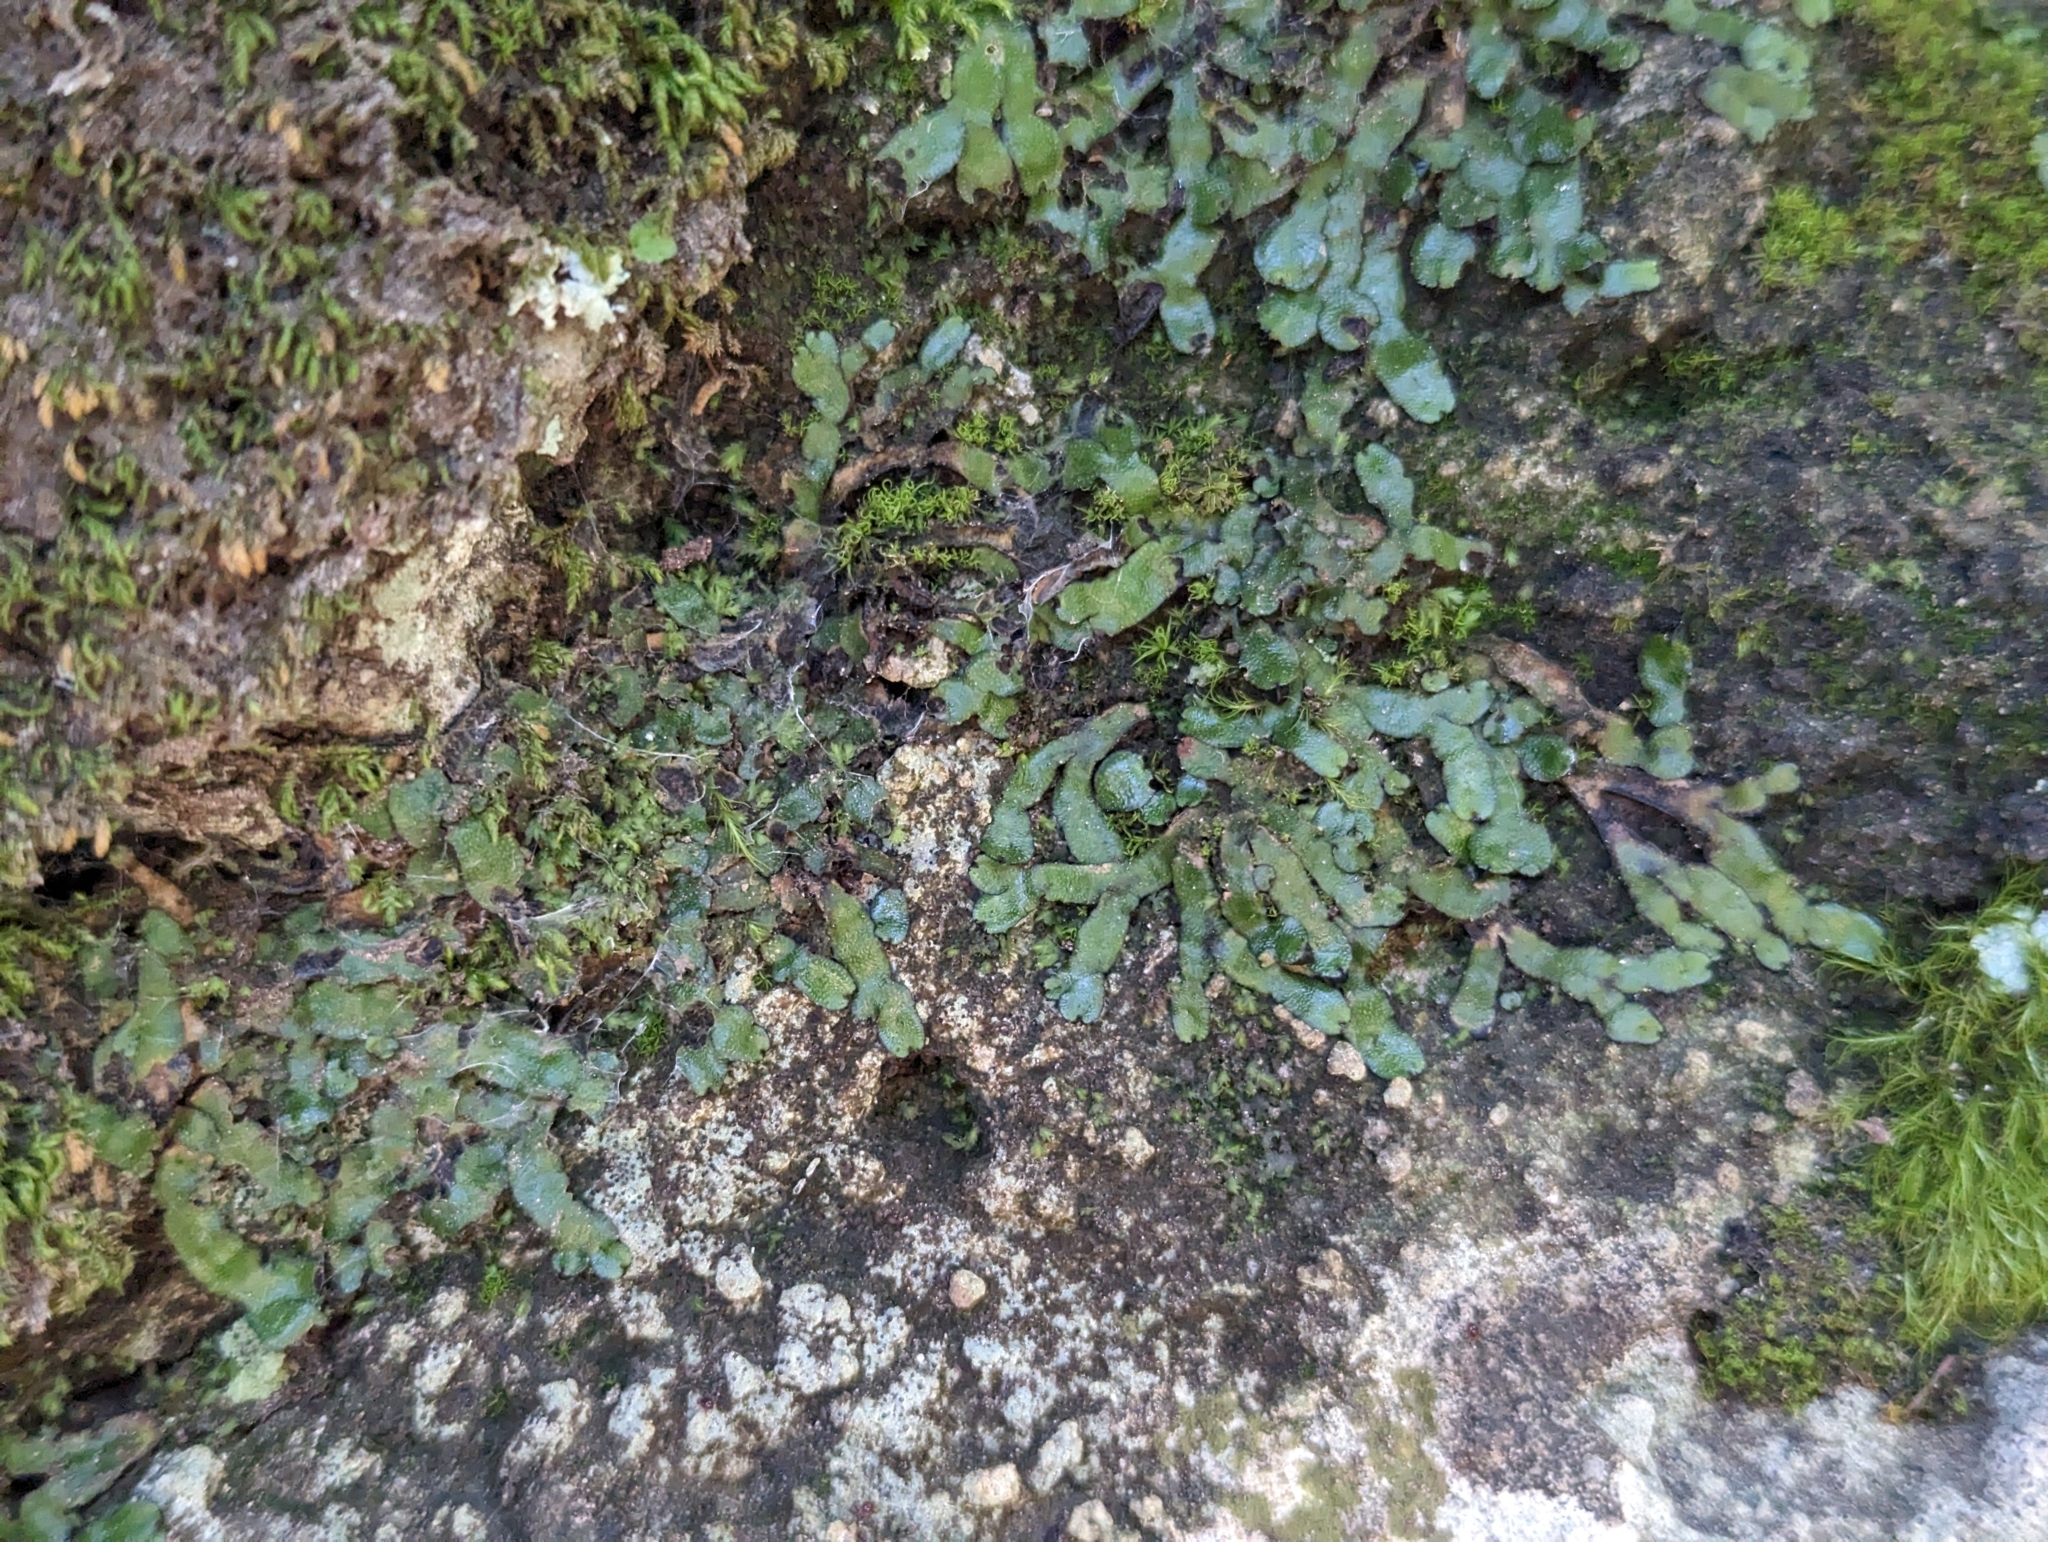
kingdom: Plantae
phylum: Marchantiophyta
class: Marchantiopsida
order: Marchantiales
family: Targioniaceae
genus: Targionia
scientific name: Targionia hypophylla
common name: Orobus-seed liverwort
